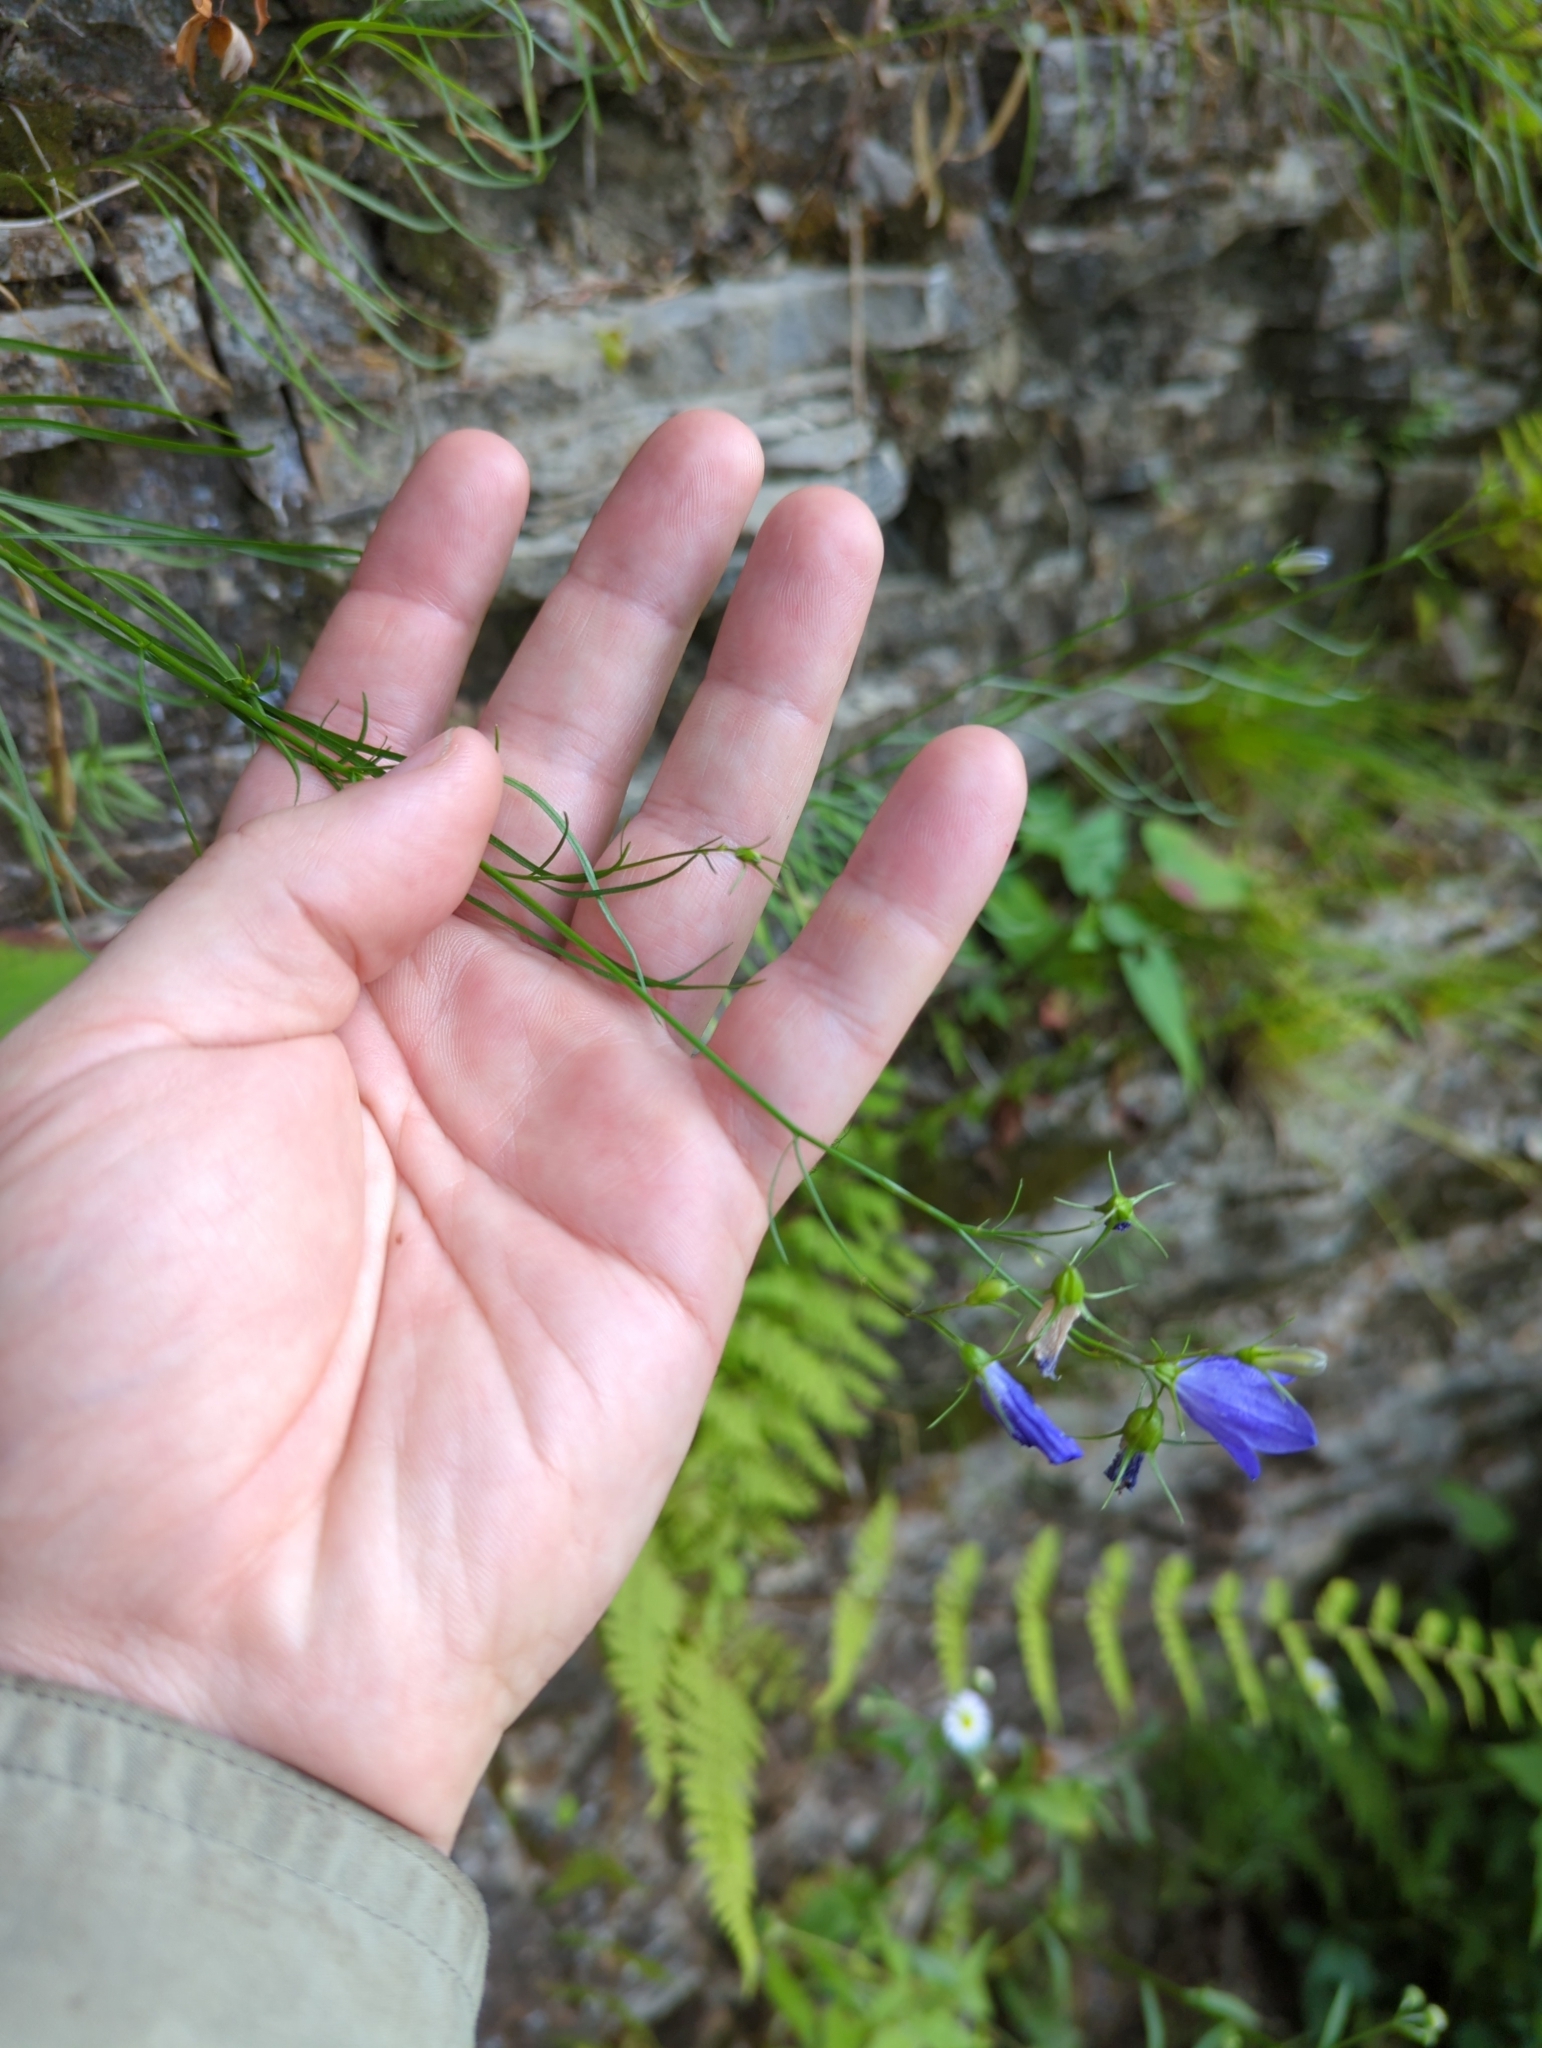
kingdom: Plantae
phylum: Tracheophyta
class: Magnoliopsida
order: Asterales
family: Campanulaceae
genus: Campanula
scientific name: Campanula intercedens
